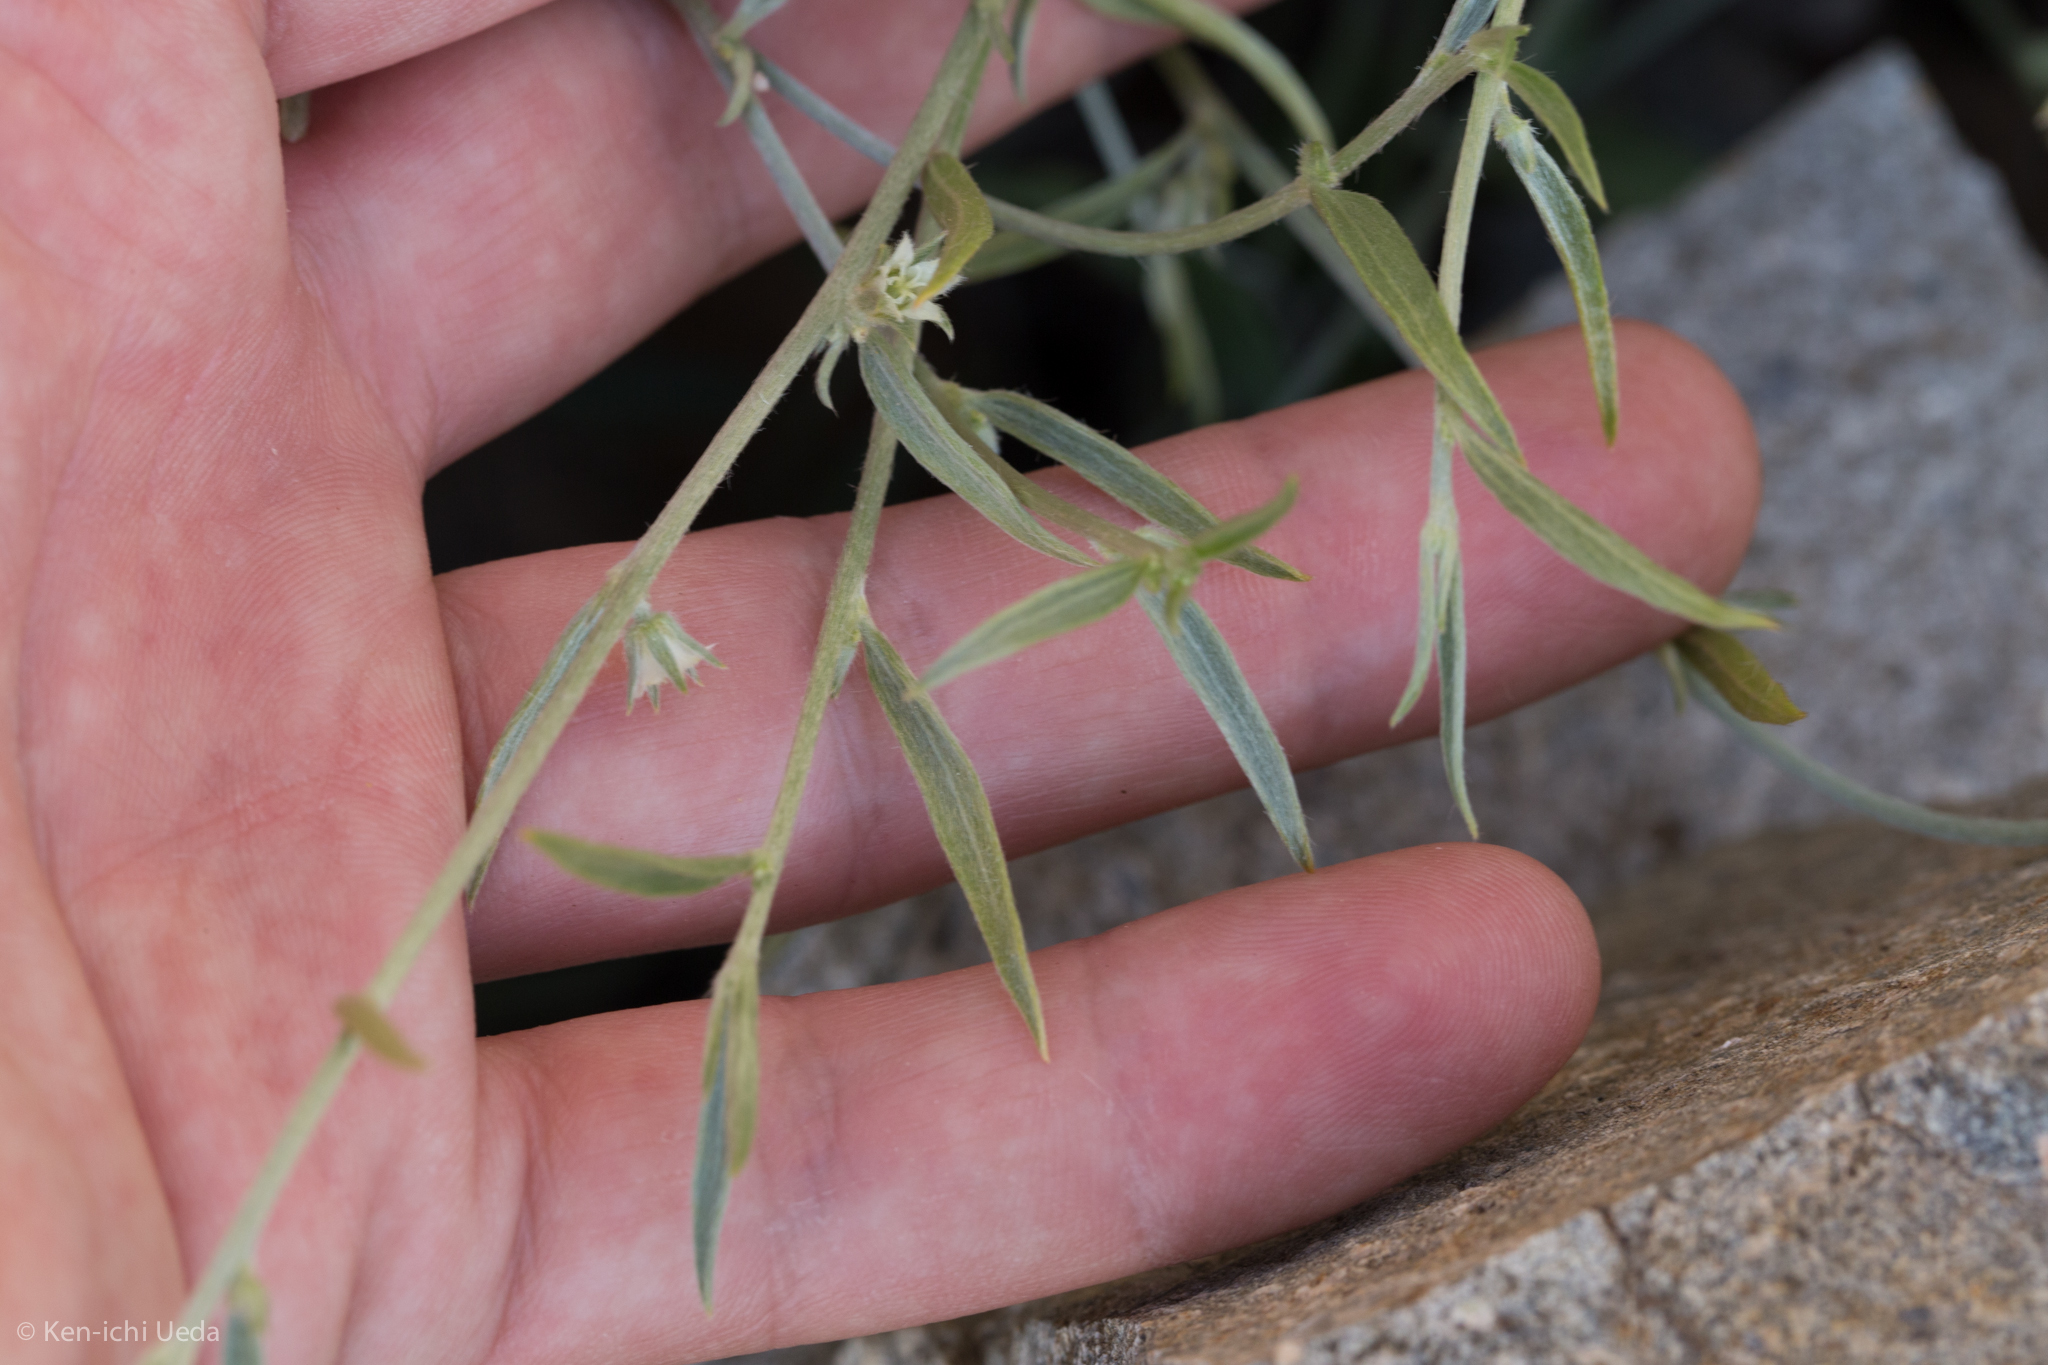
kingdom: Plantae
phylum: Tracheophyta
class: Magnoliopsida
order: Malpighiales
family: Euphorbiaceae
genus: Ditaxis
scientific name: Ditaxis lanceolata
